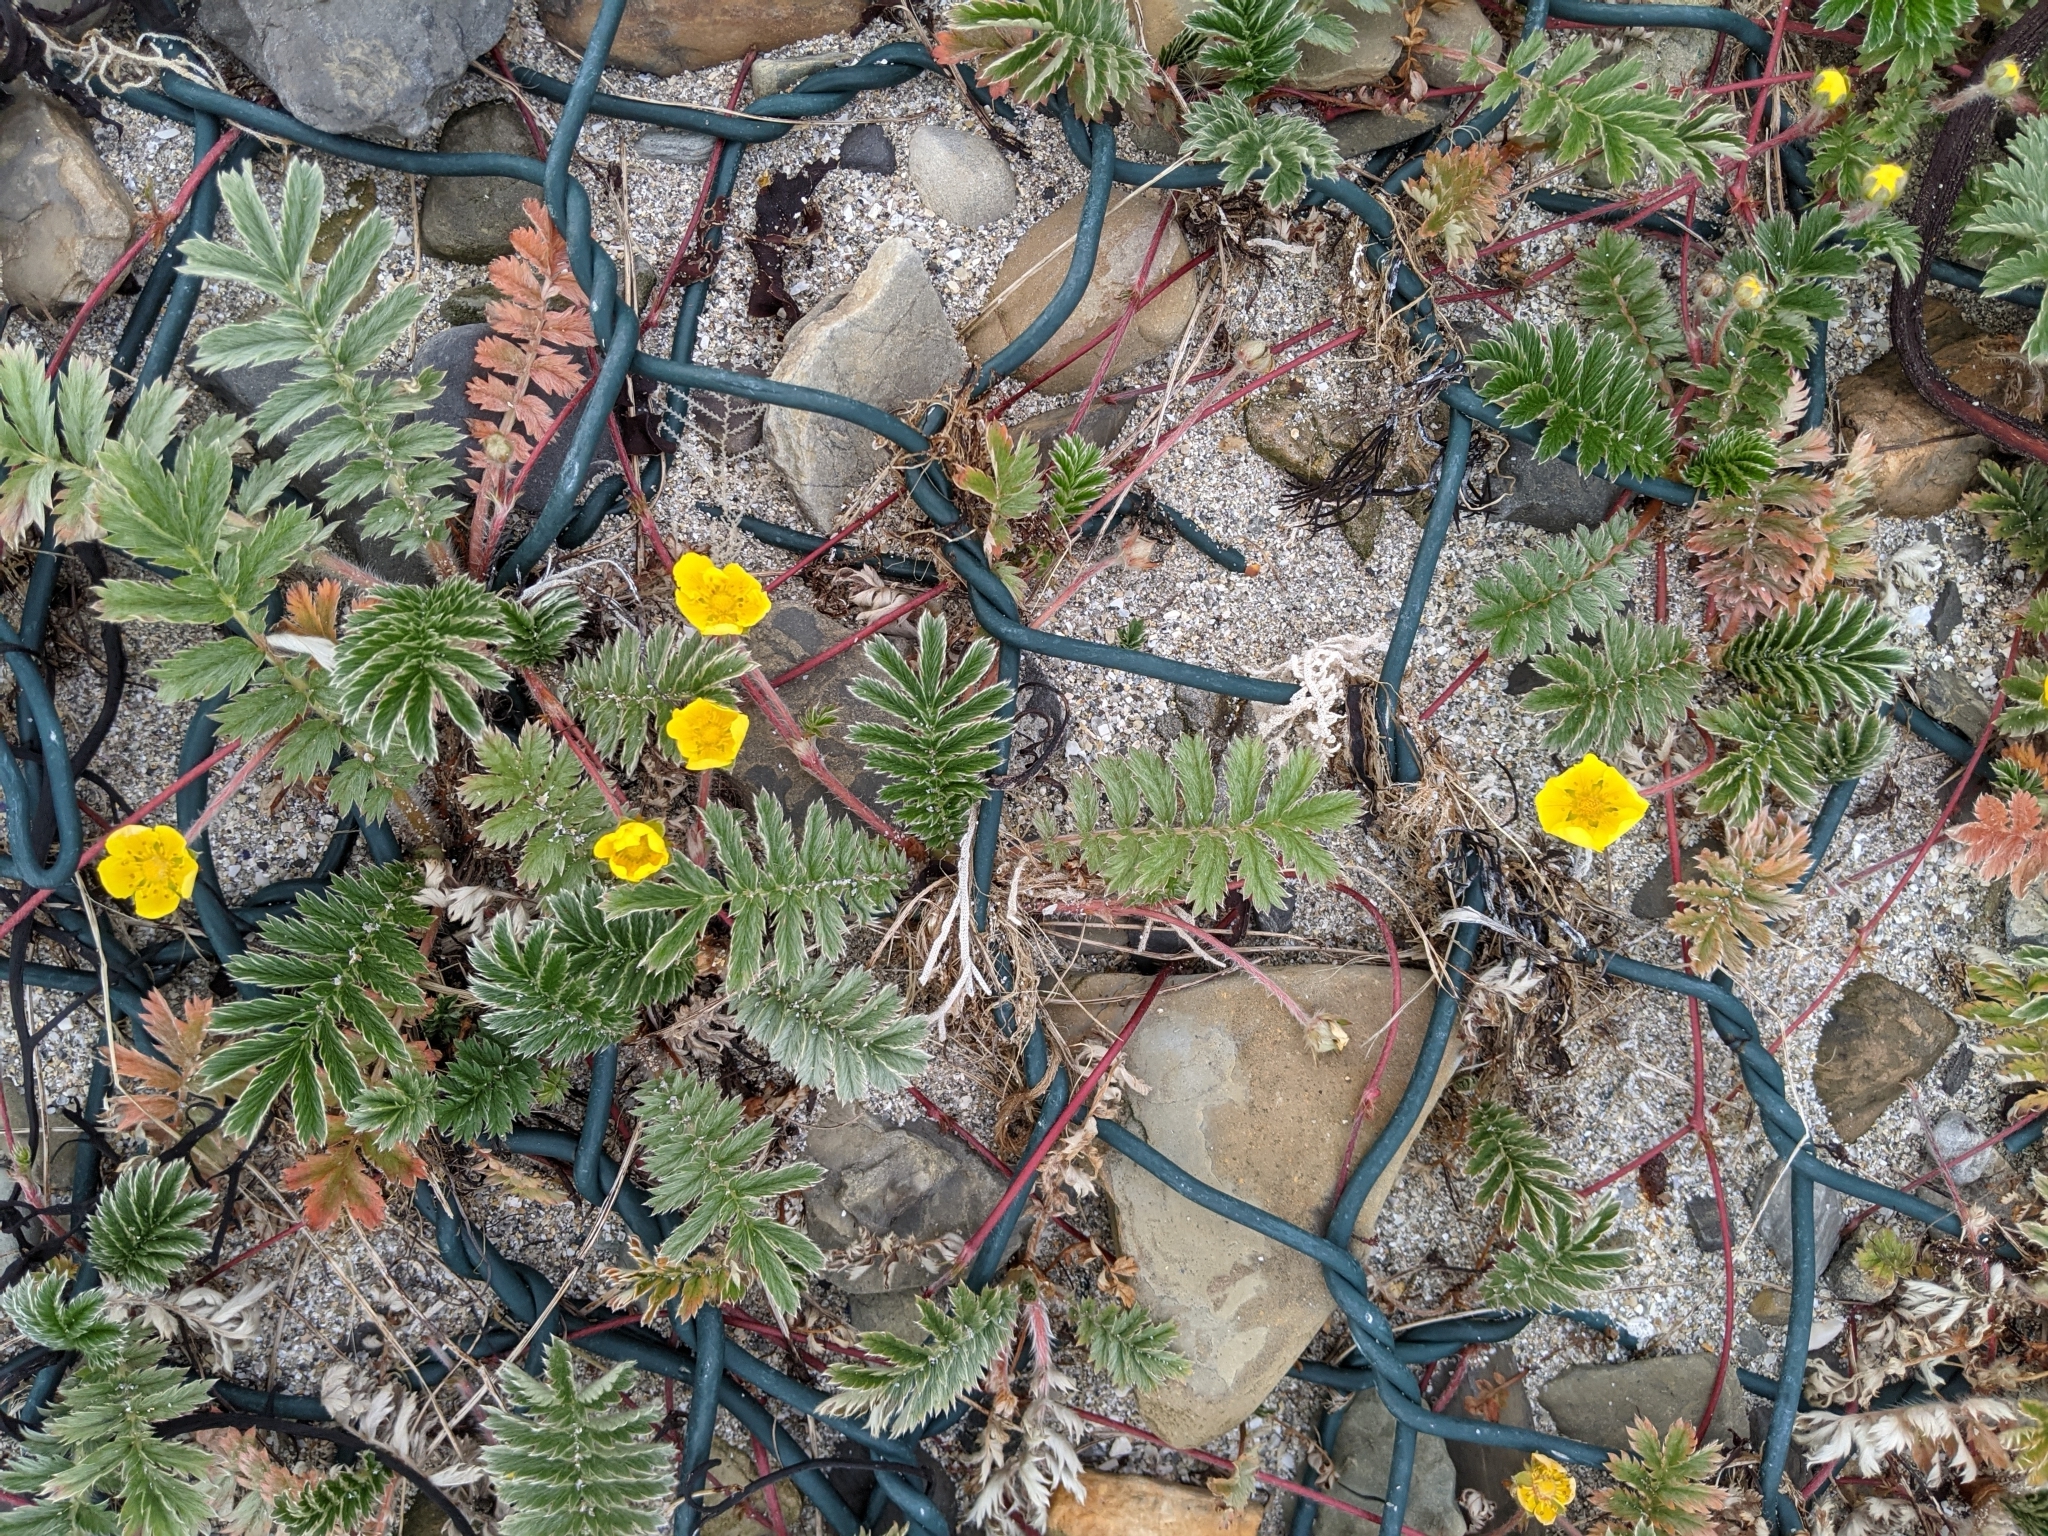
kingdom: Plantae
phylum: Tracheophyta
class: Magnoliopsida
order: Rosales
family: Rosaceae
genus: Argentina
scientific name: Argentina anserina
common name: Common silverweed
